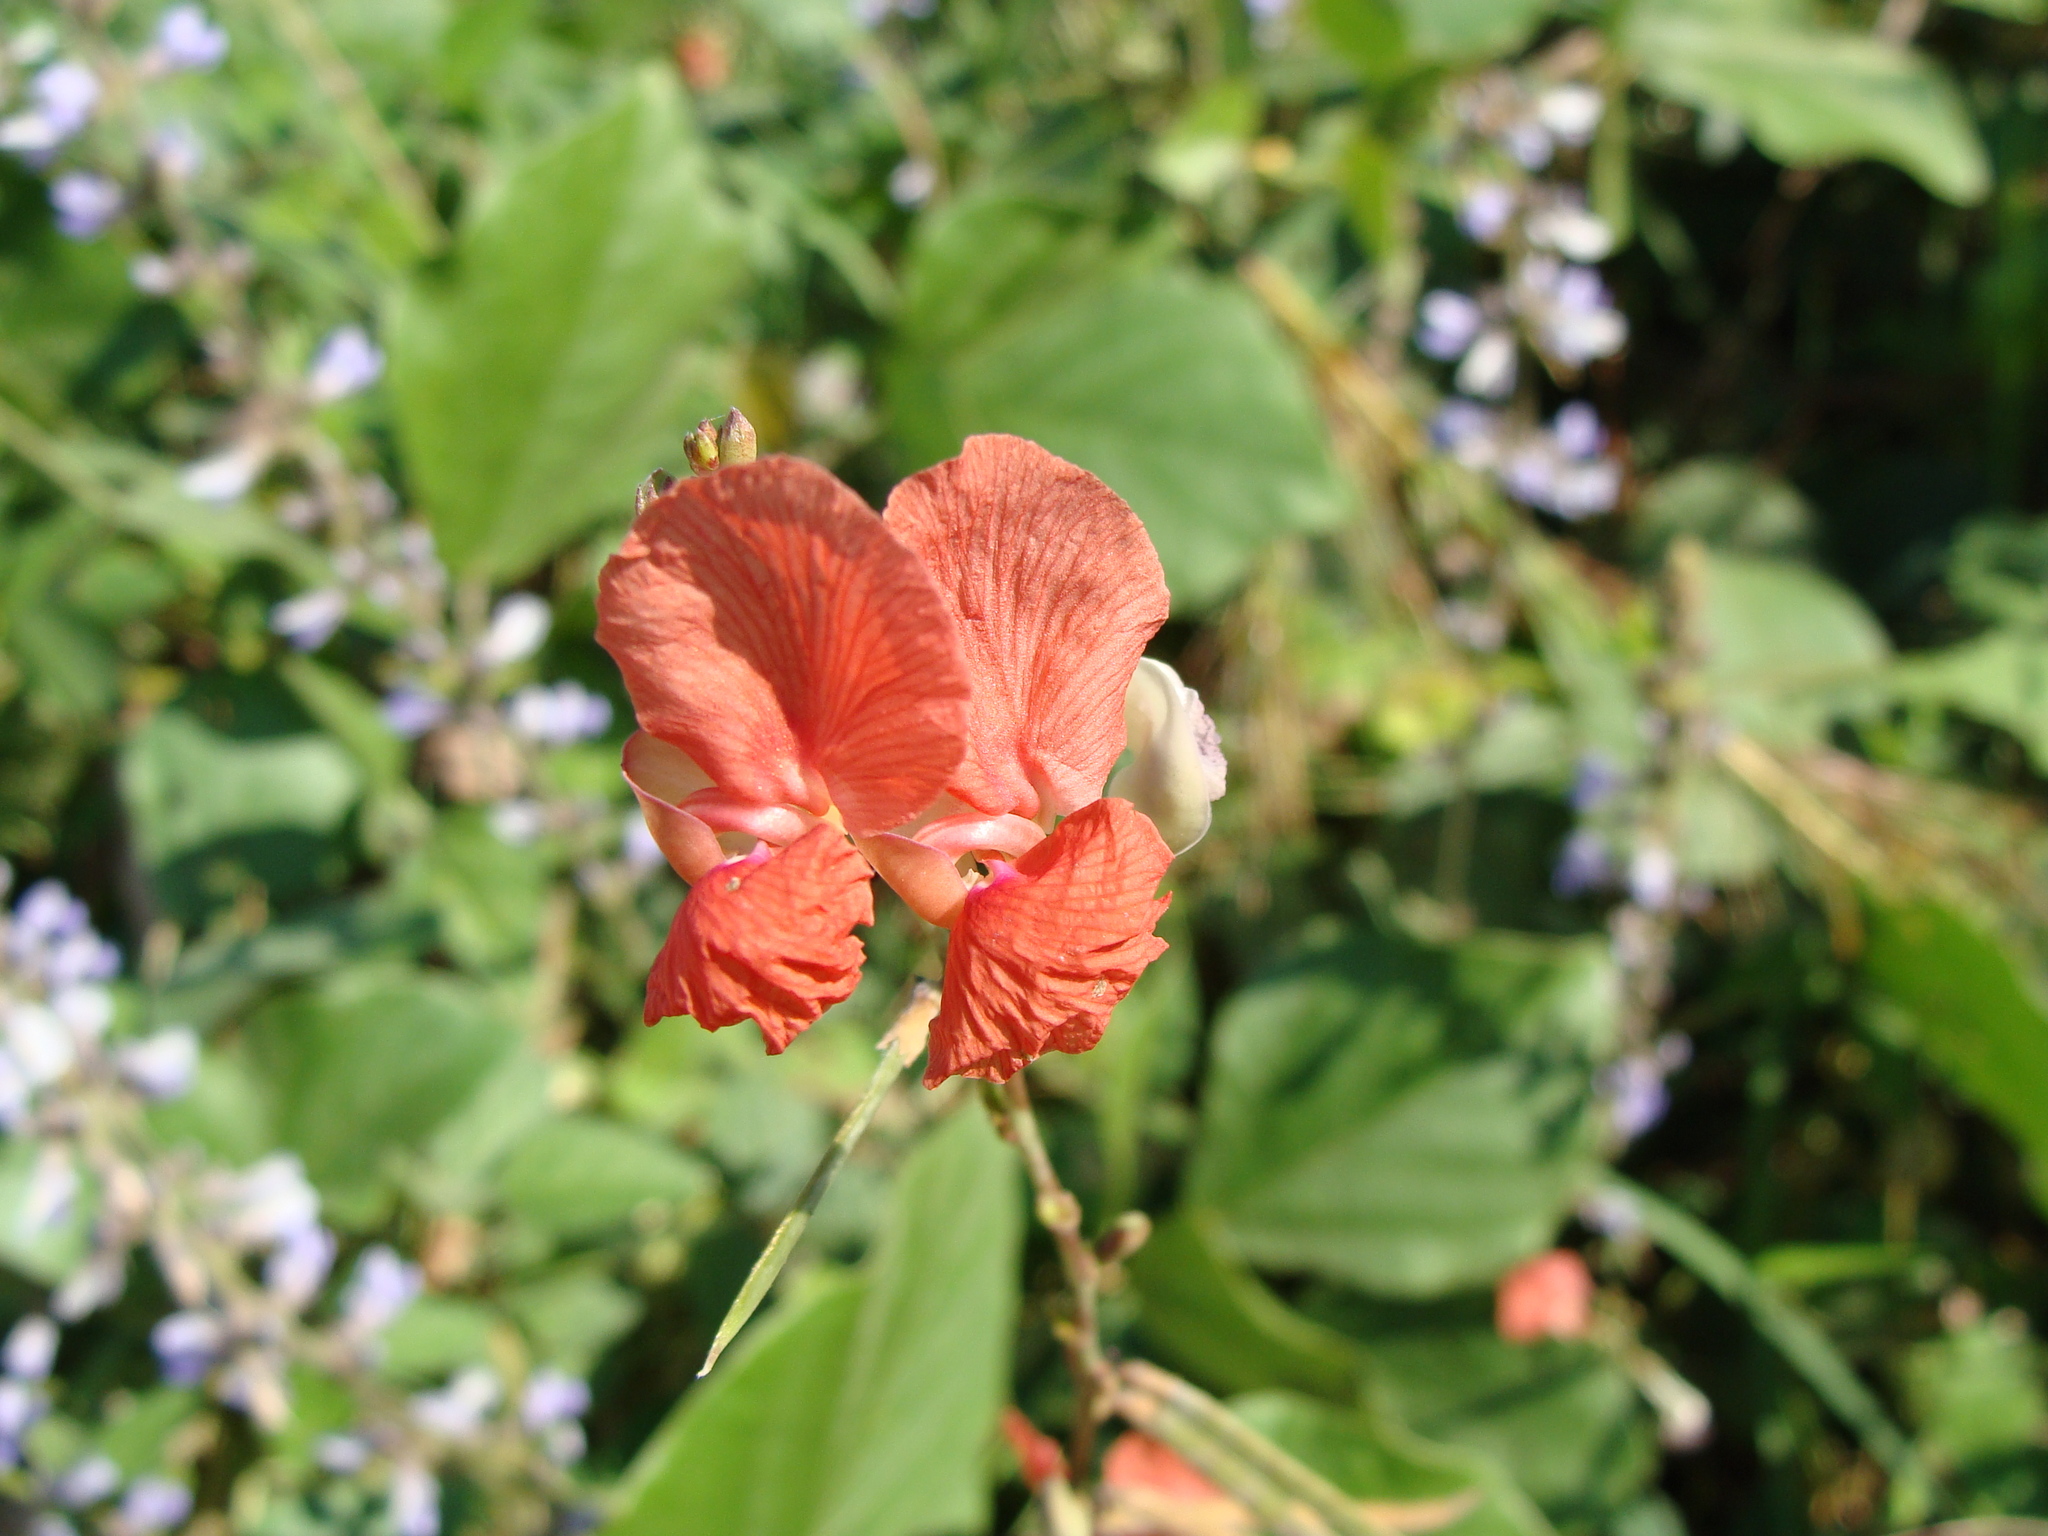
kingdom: Plantae
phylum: Tracheophyta
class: Magnoliopsida
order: Fabales
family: Fabaceae
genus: Macroptilium
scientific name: Macroptilium gracile
